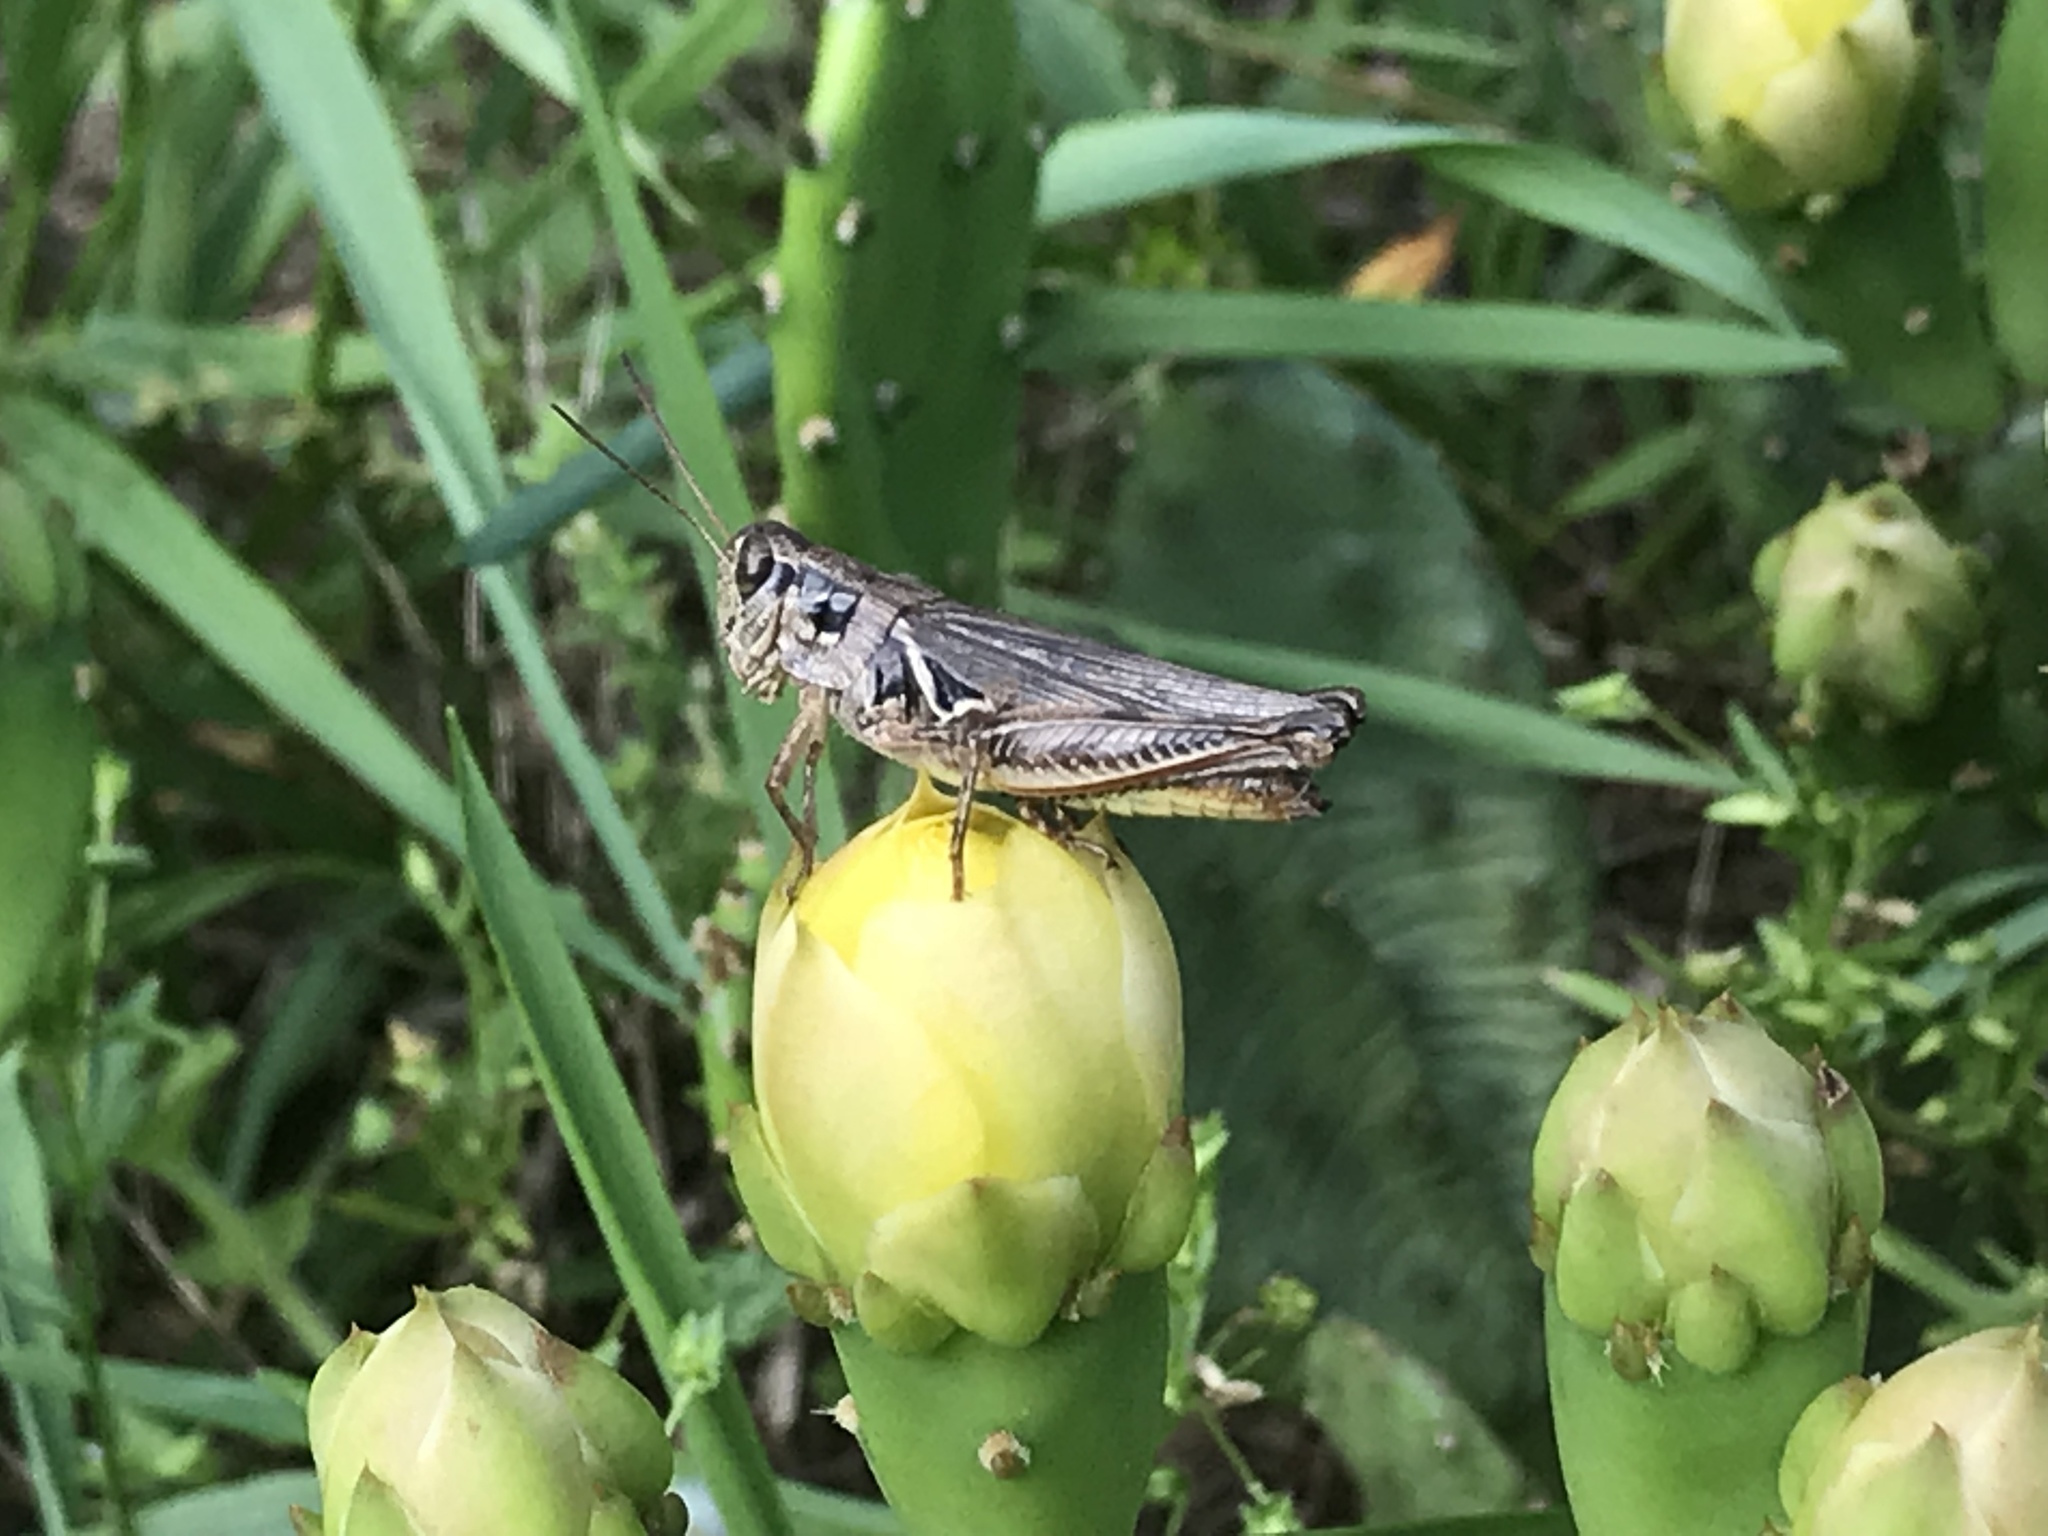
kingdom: Animalia
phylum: Arthropoda
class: Insecta
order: Orthoptera
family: Acrididae
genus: Melanoplus
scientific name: Melanoplus femurrubrum
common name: Red-legged grasshopper
